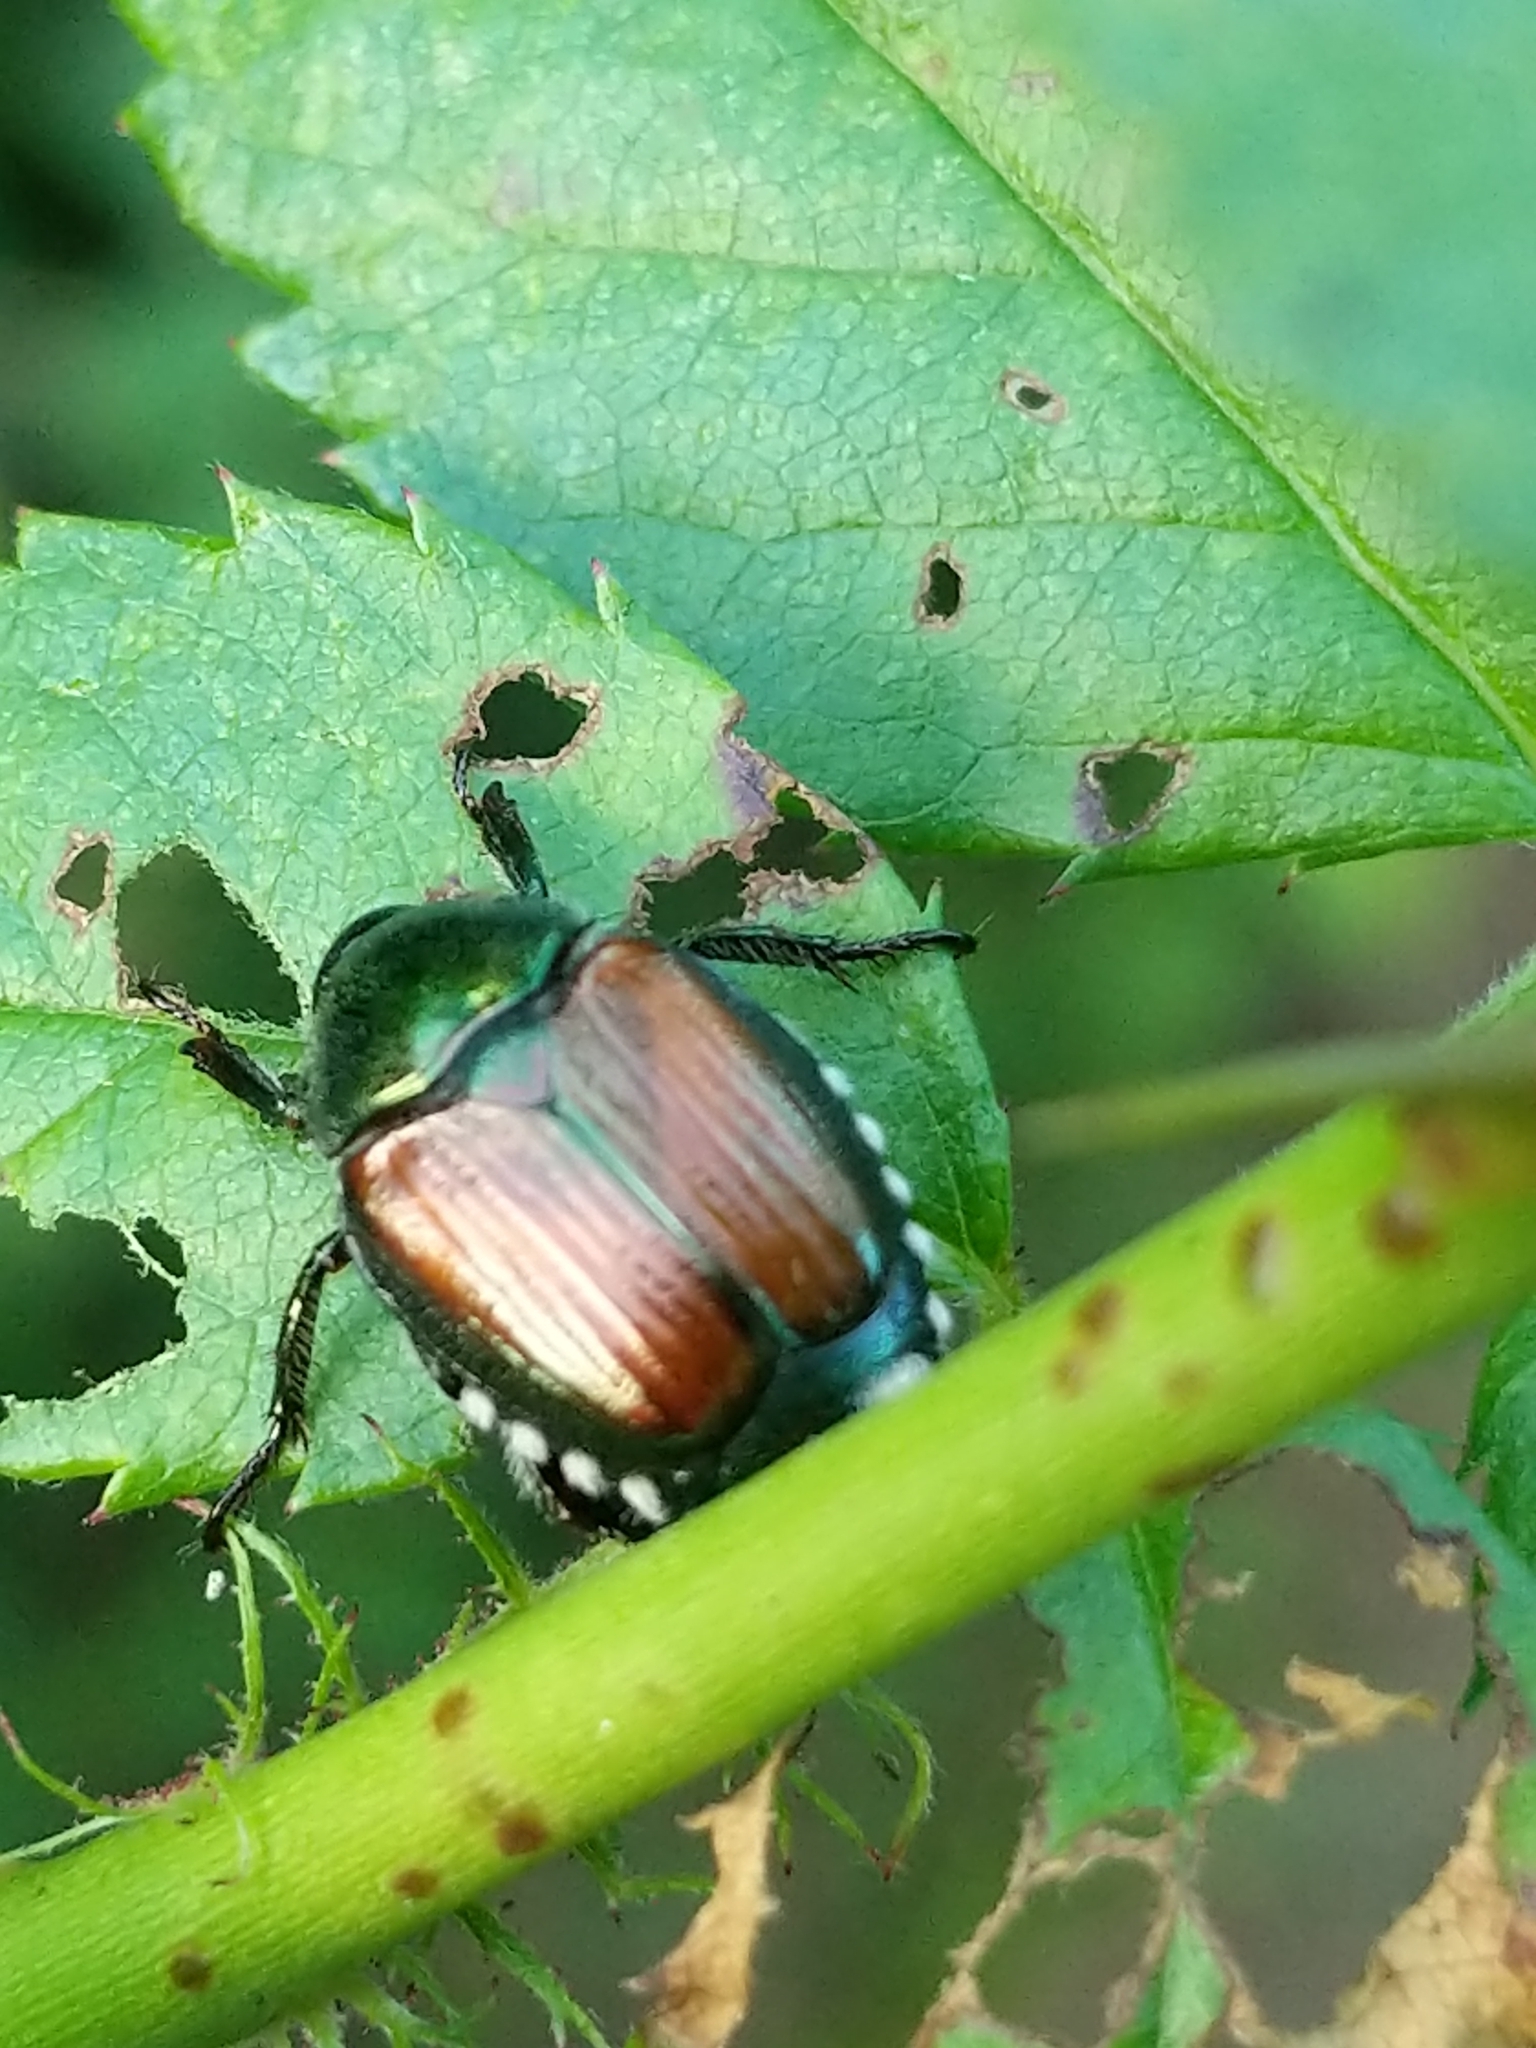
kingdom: Animalia
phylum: Arthropoda
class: Insecta
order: Coleoptera
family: Scarabaeidae
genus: Popillia
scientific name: Popillia japonica
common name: Japanese beetle
